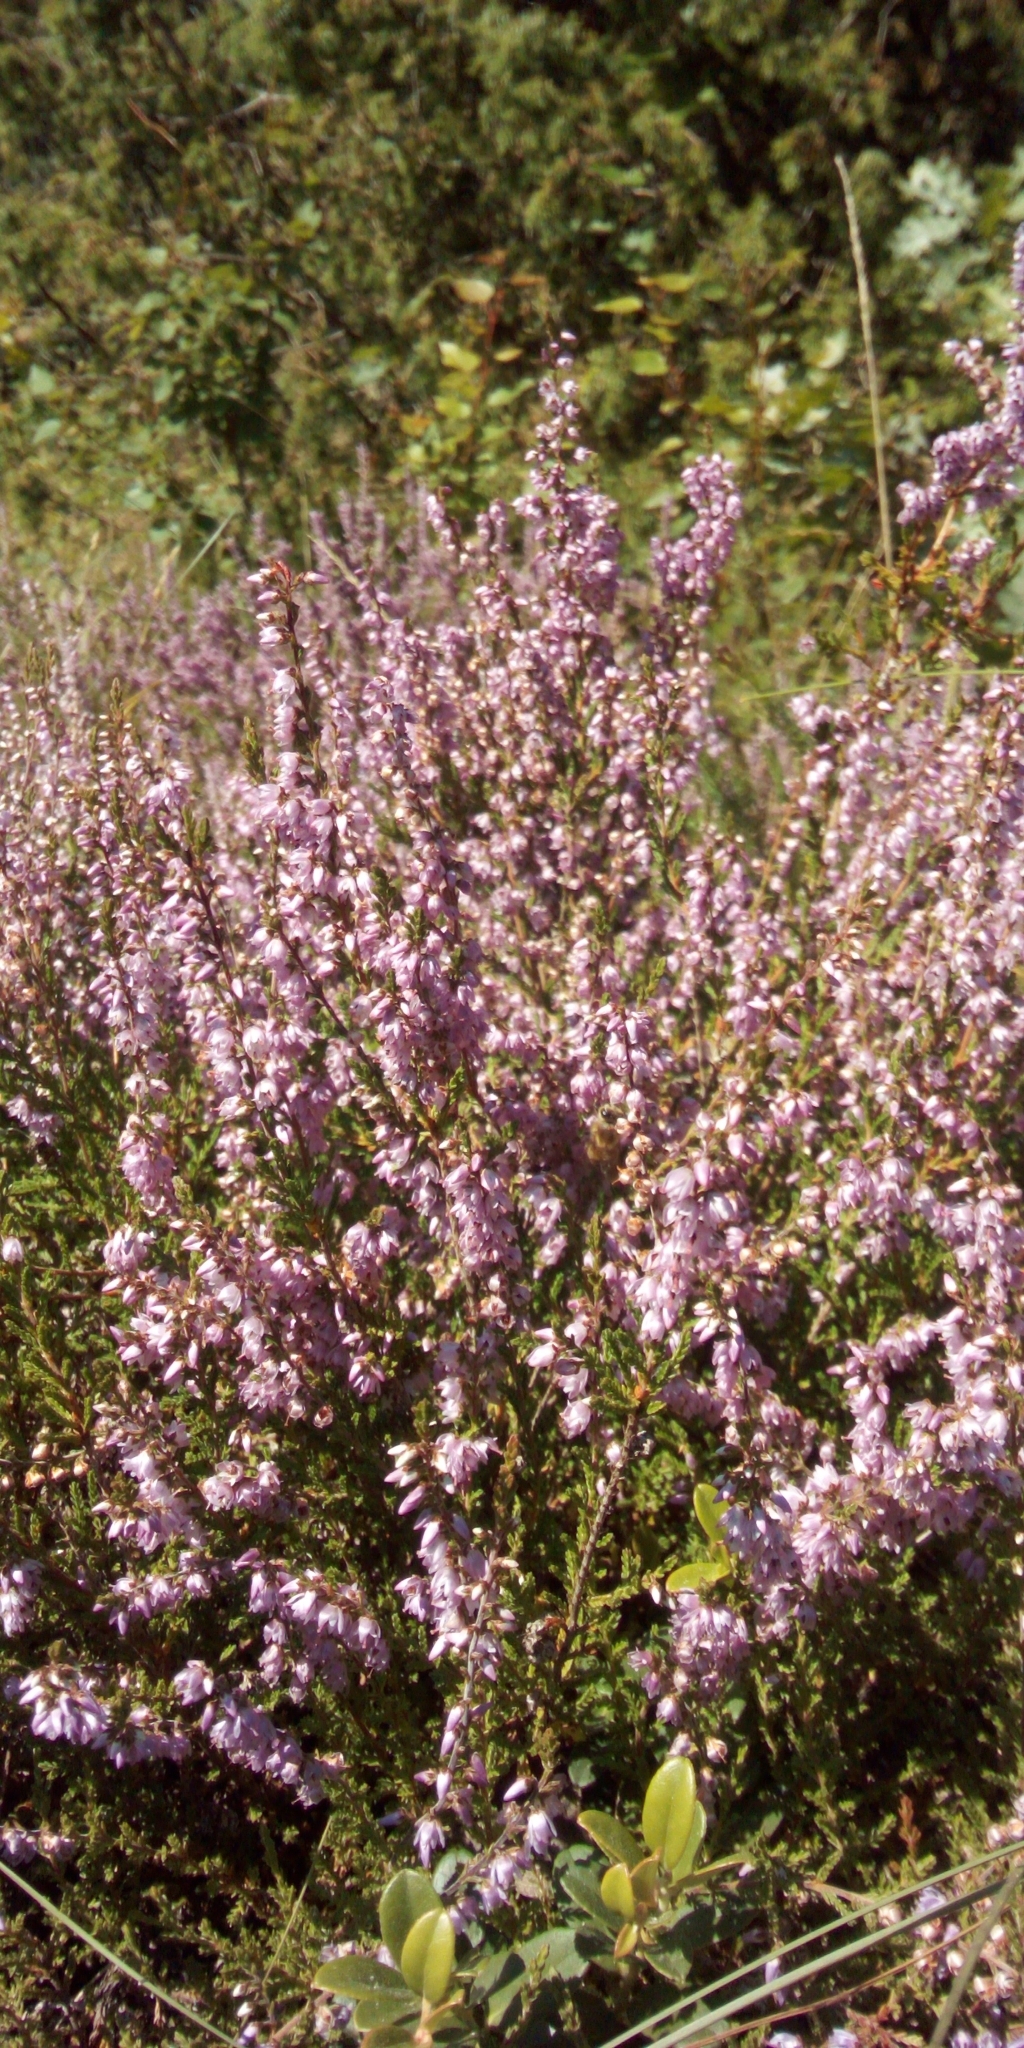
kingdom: Plantae
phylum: Tracheophyta
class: Magnoliopsida
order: Ericales
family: Ericaceae
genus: Calluna
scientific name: Calluna vulgaris
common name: Heather
